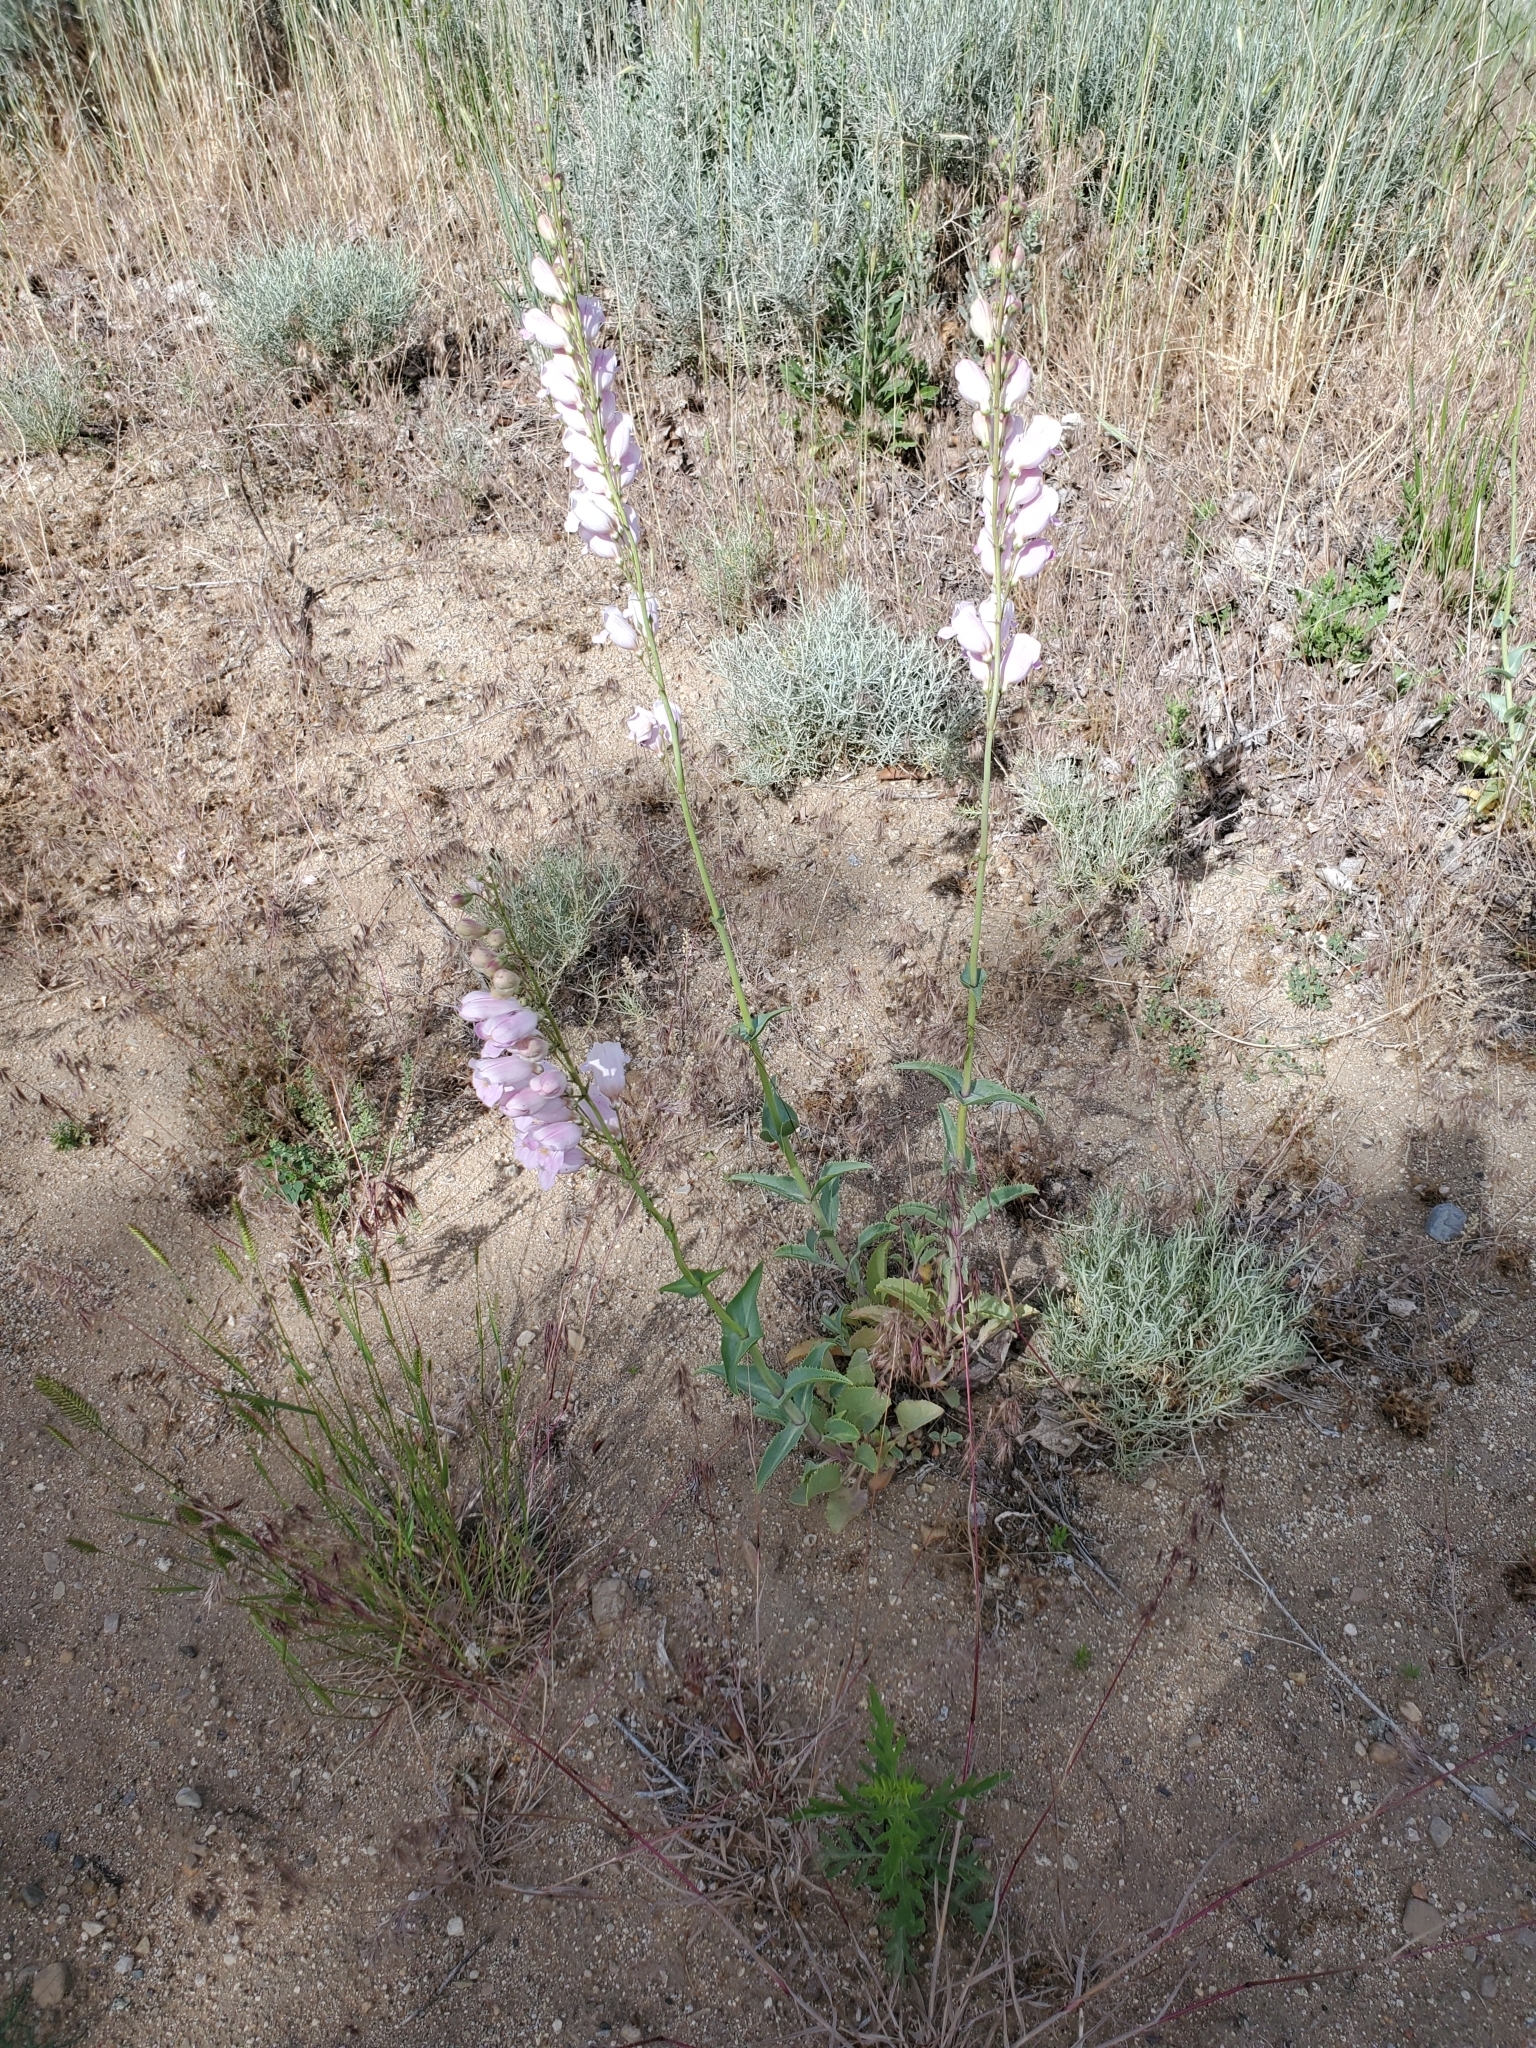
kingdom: Plantae
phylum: Tracheophyta
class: Magnoliopsida
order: Lamiales
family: Plantaginaceae
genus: Penstemon
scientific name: Penstemon palmeri
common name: Palmer penstemon
